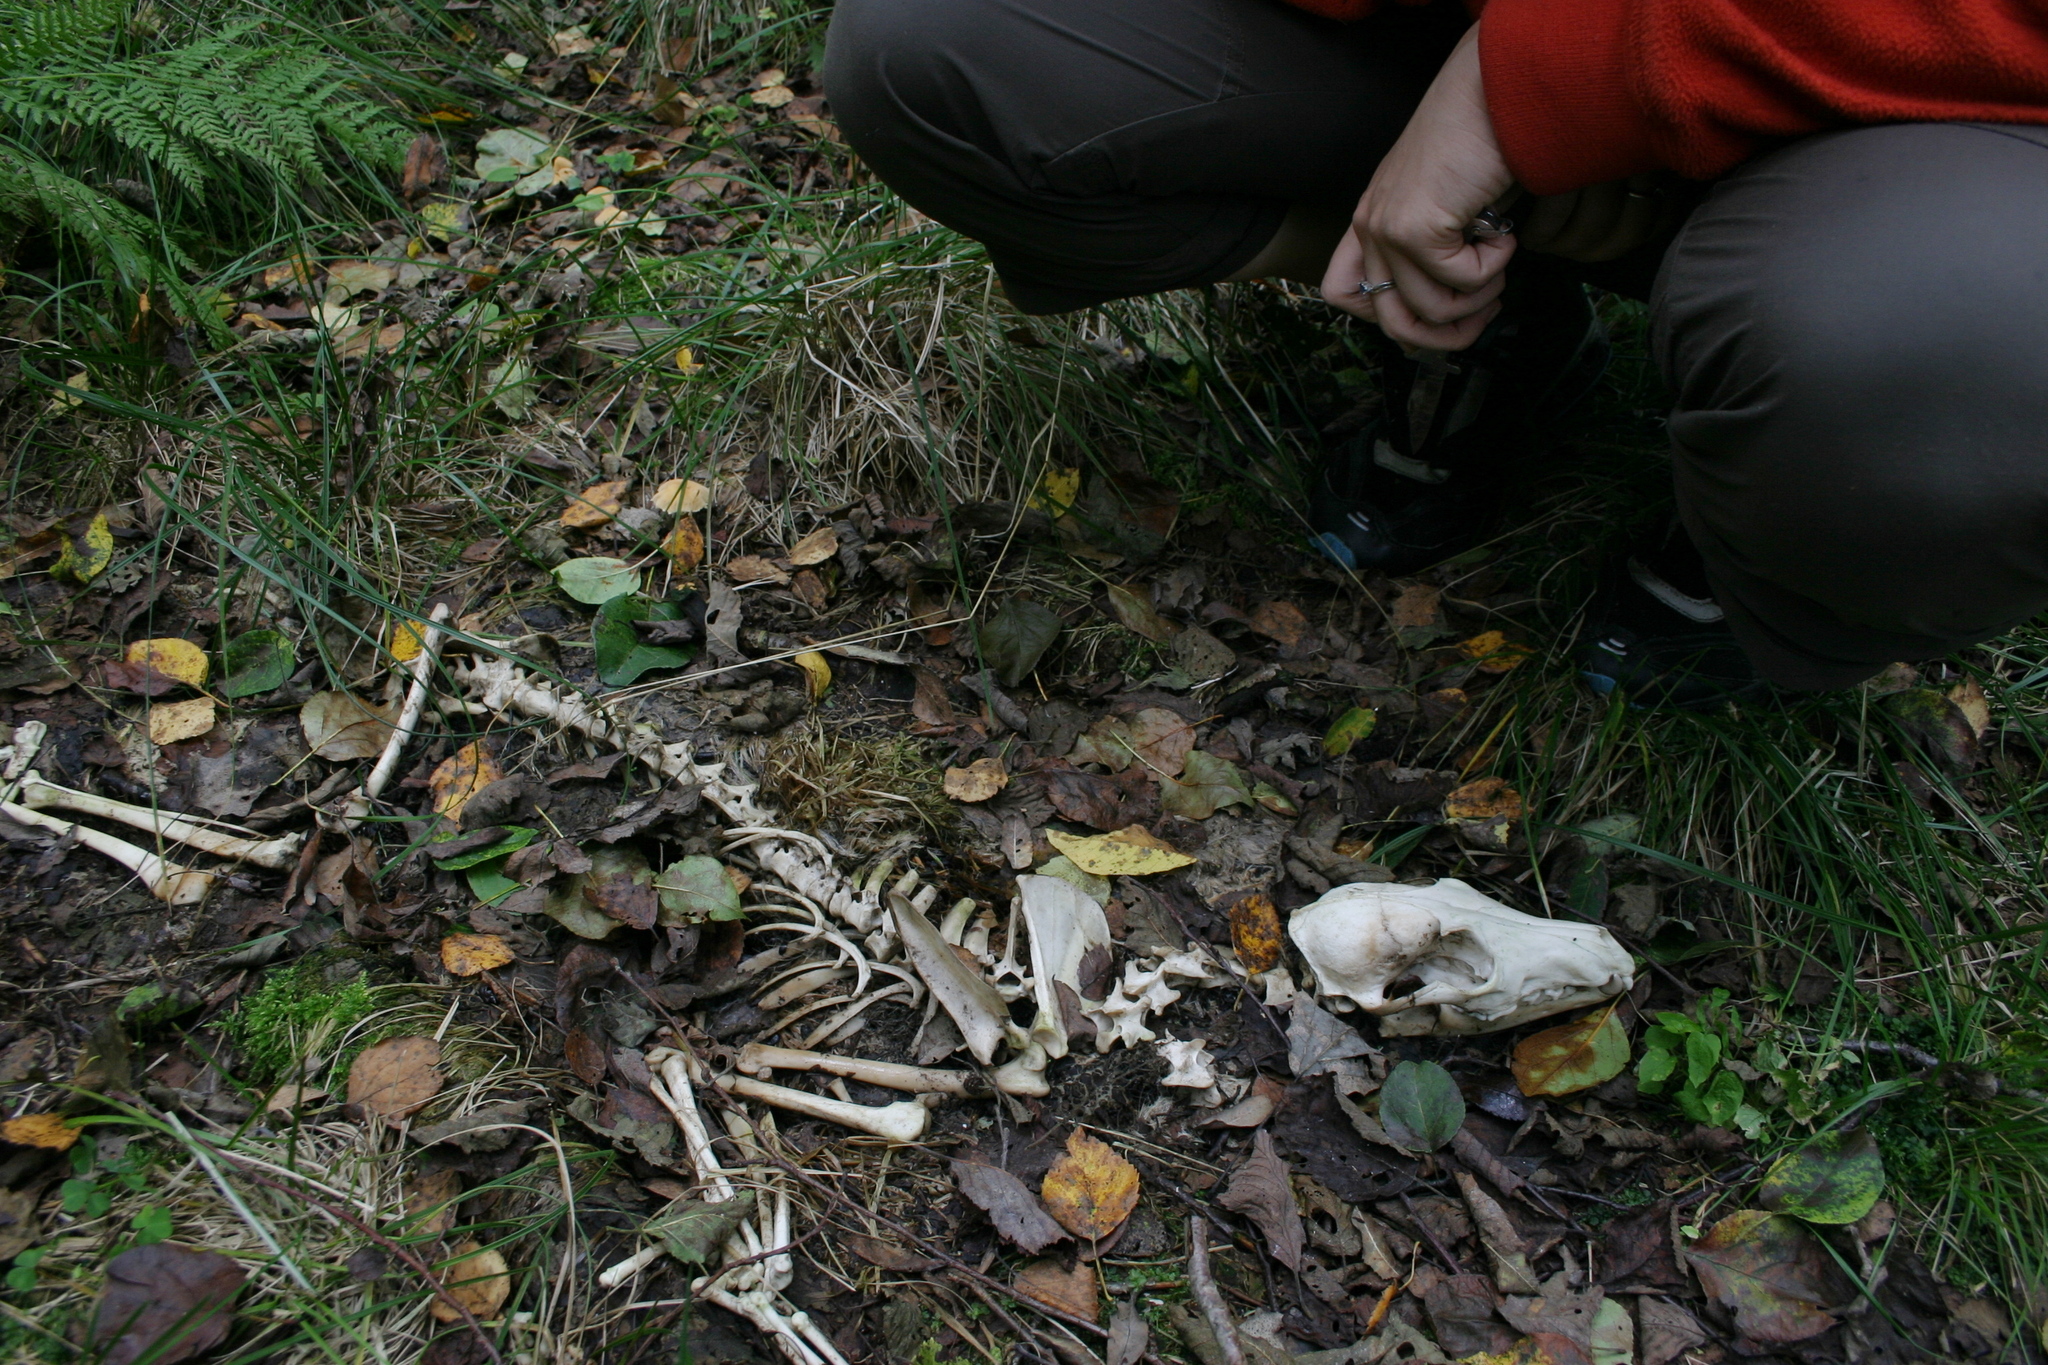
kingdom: Animalia
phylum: Chordata
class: Mammalia
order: Carnivora
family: Canidae
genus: Vulpes
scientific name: Vulpes vulpes
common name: Red fox
